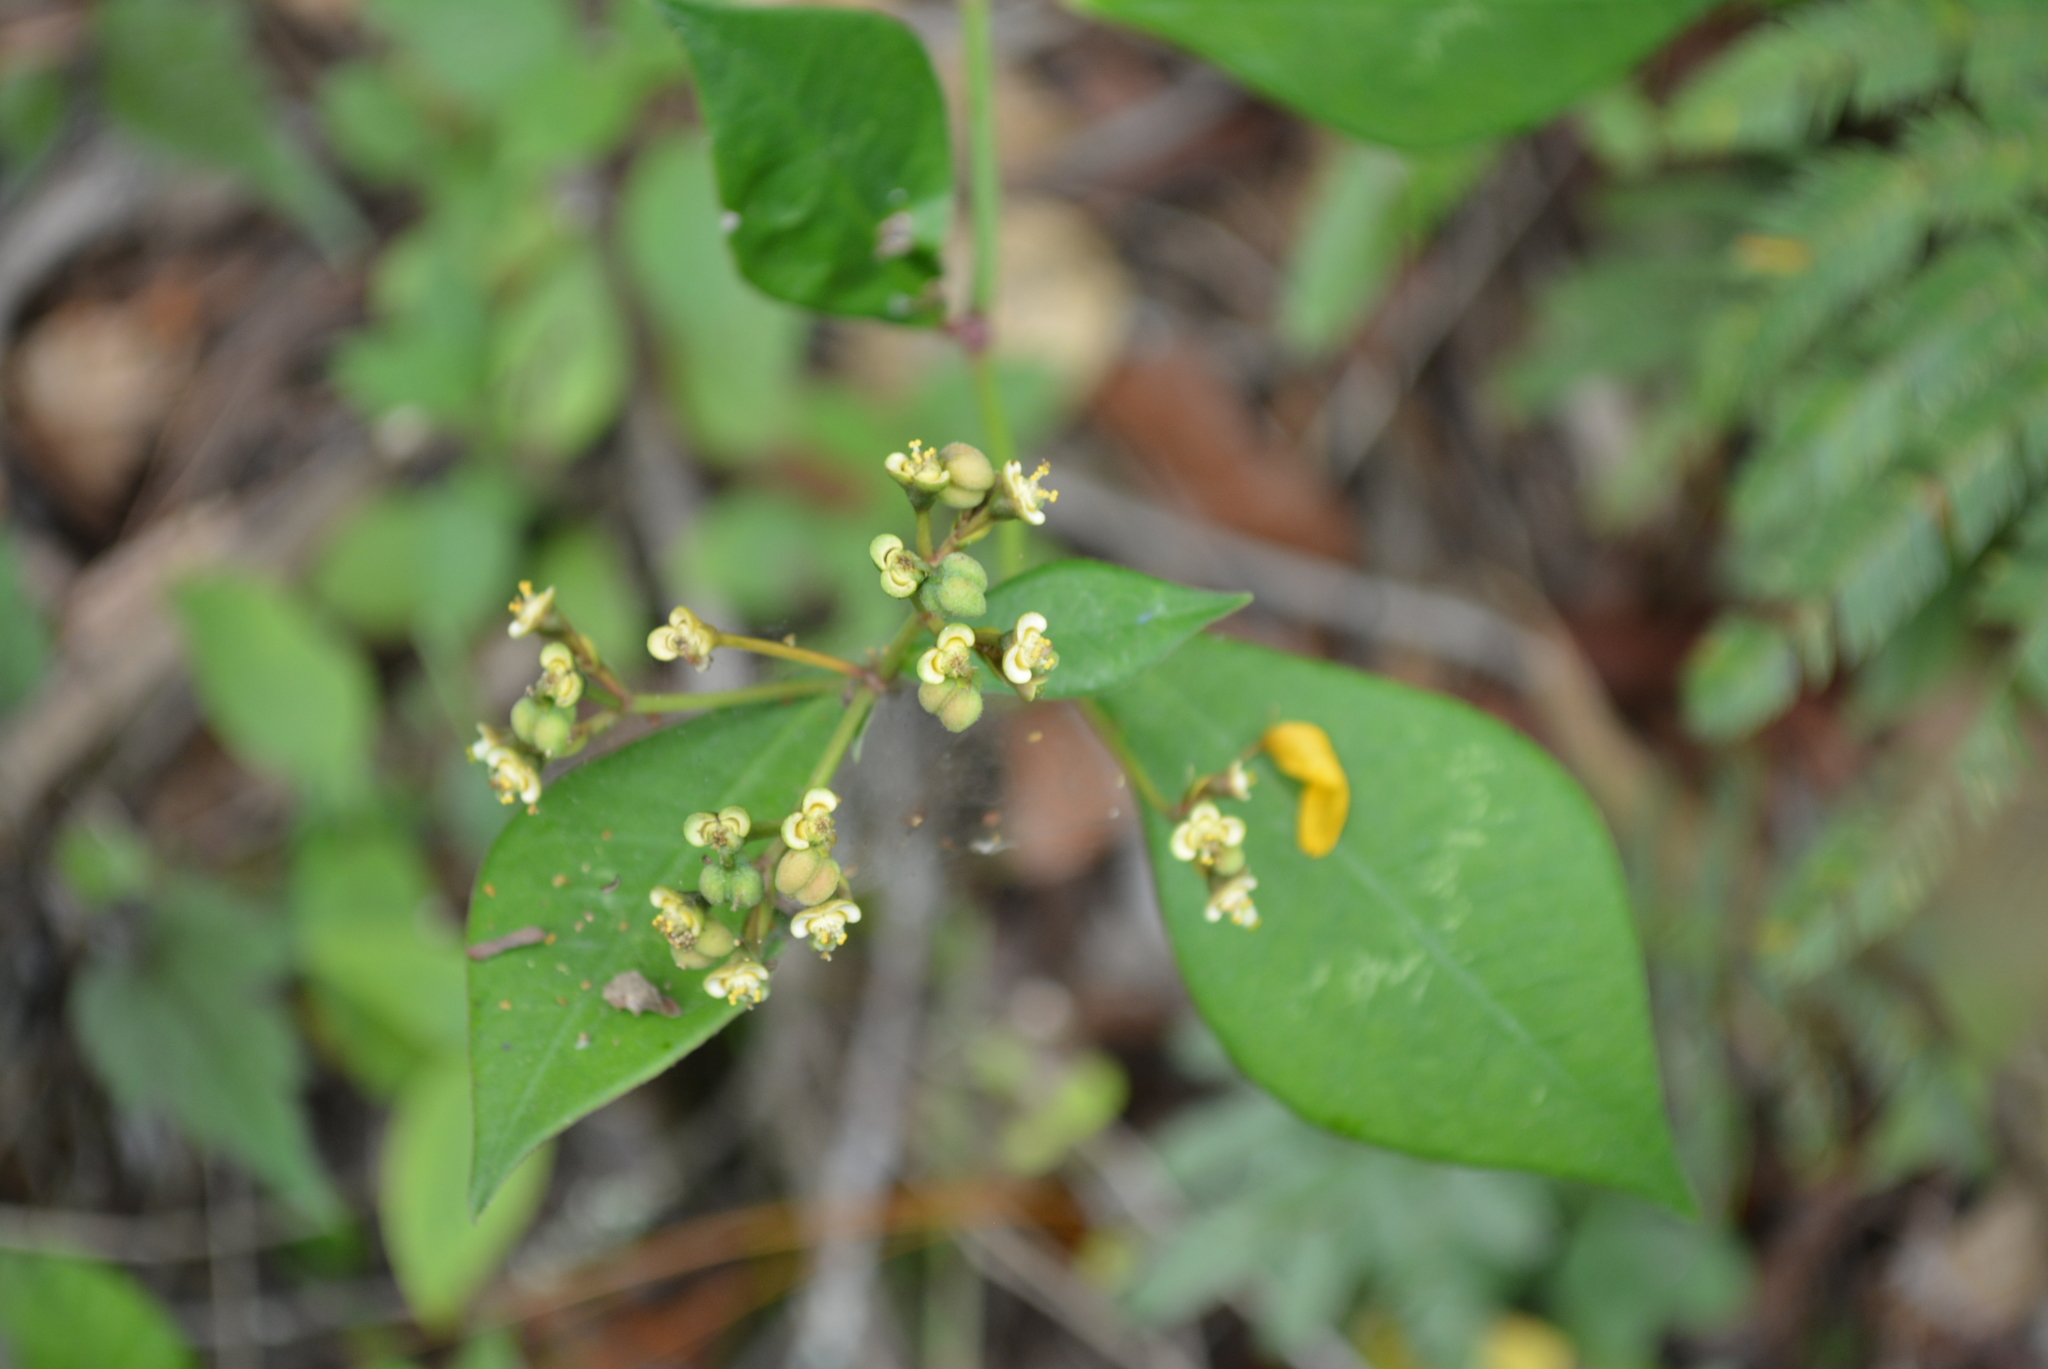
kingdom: Plantae
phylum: Tracheophyta
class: Magnoliopsida
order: Malpighiales
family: Euphorbiaceae
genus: Euphorbia
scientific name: Euphorbia lancifolia
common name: Ixbut
